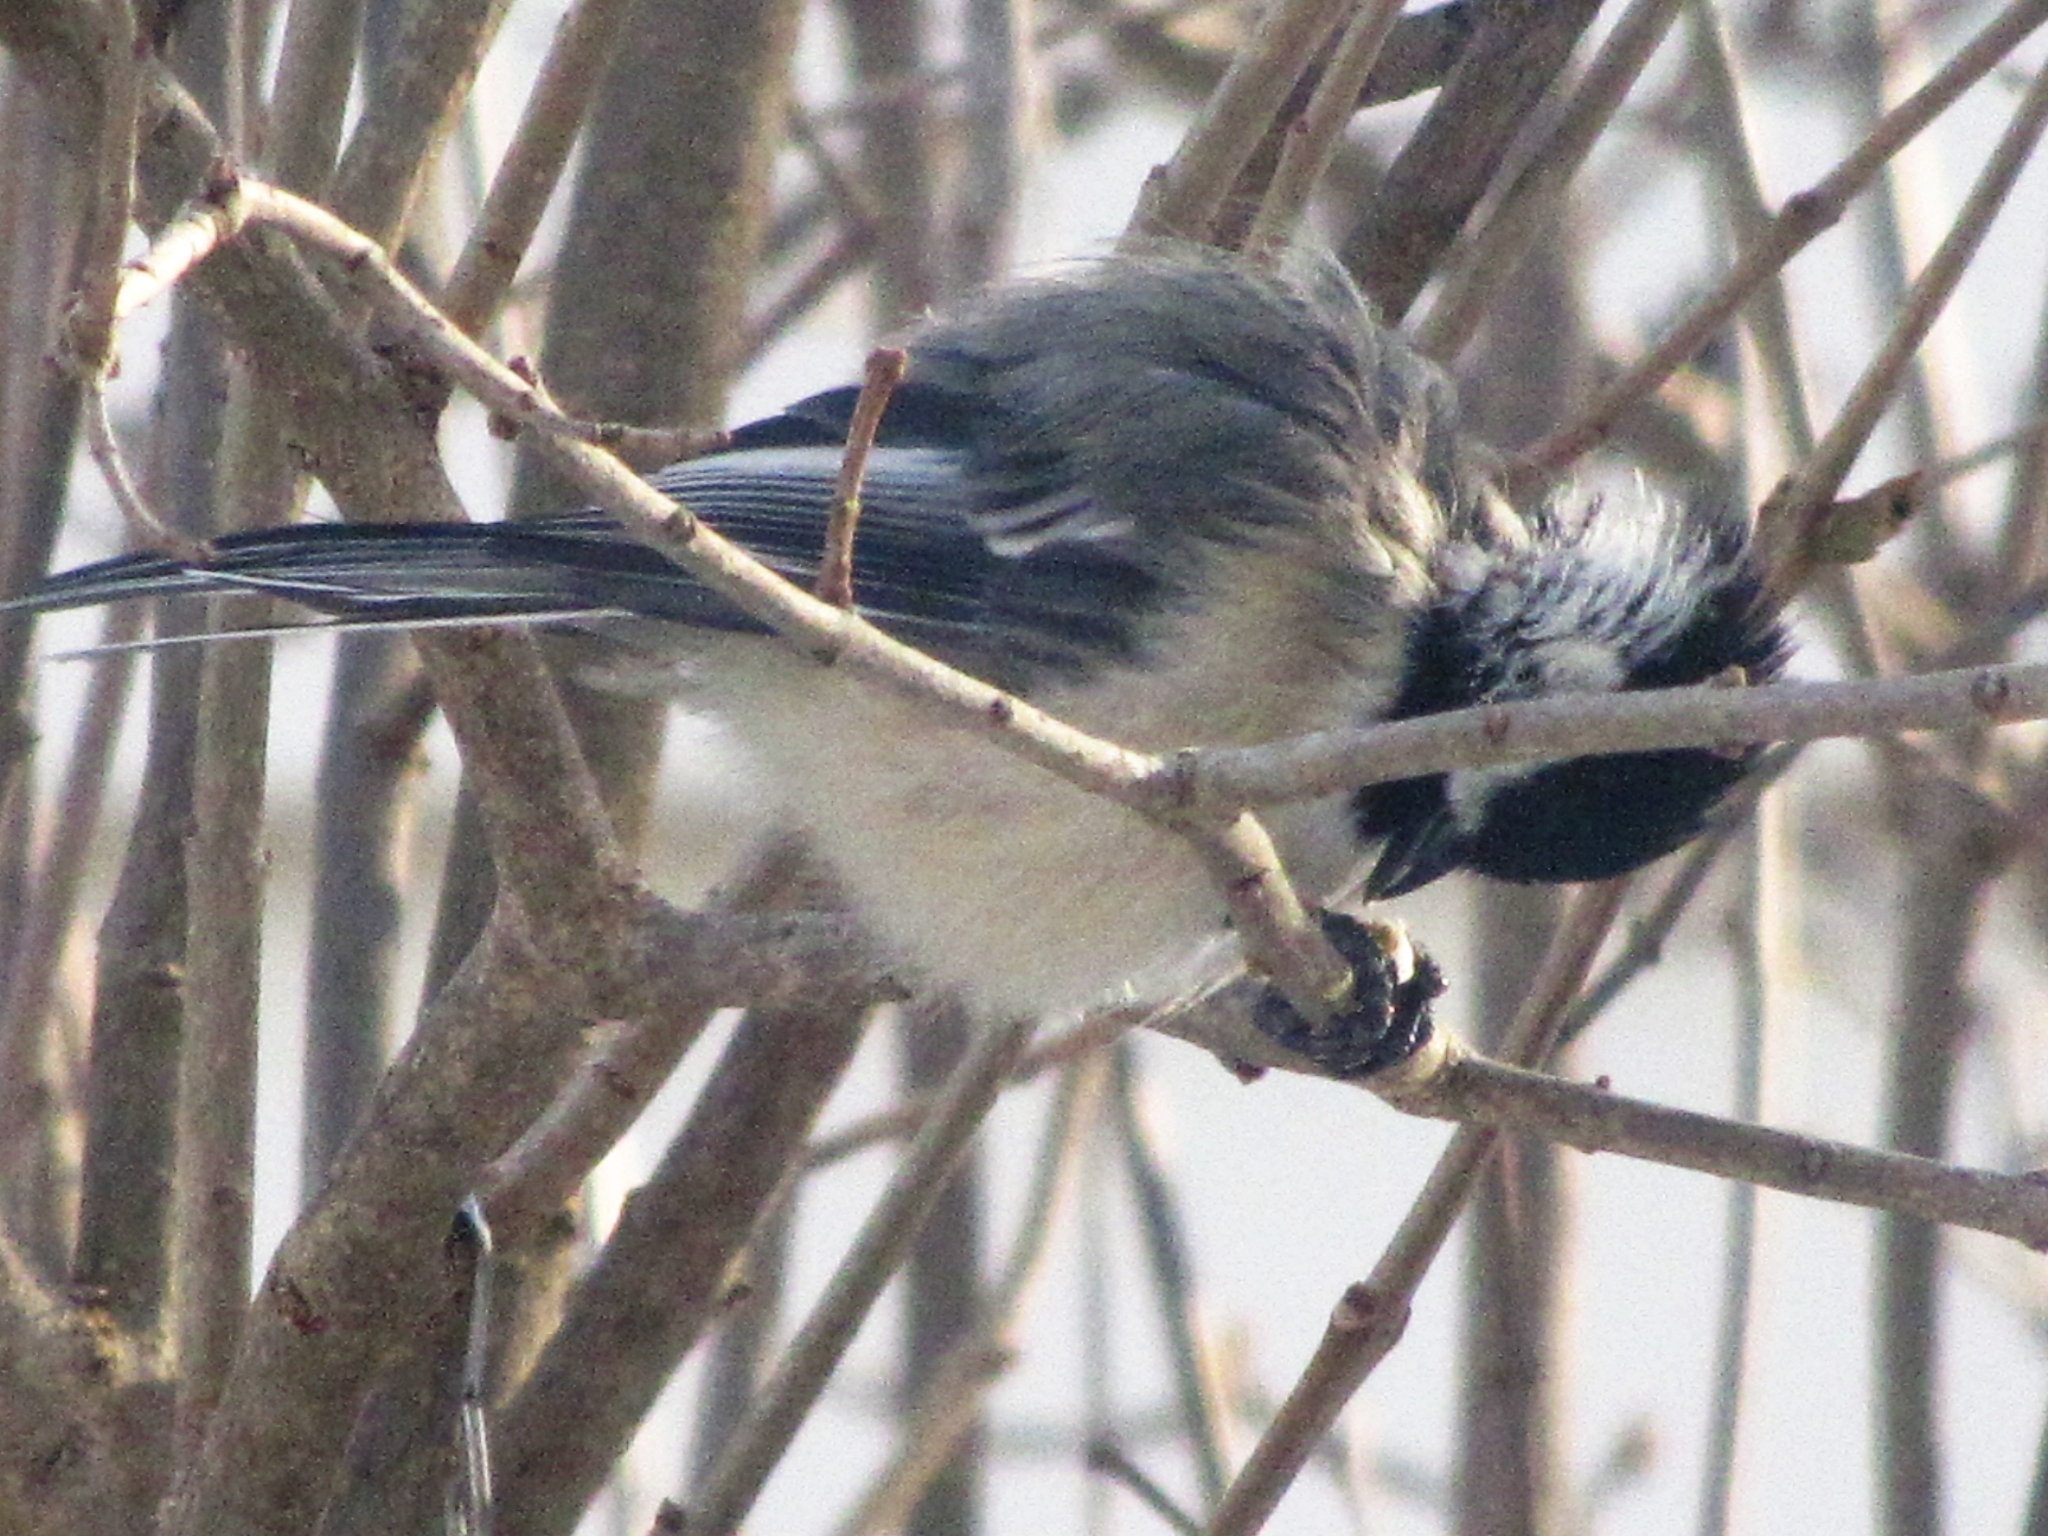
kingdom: Animalia
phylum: Chordata
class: Aves
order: Passeriformes
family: Paridae
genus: Poecile
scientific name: Poecile atricapillus
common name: Black-capped chickadee
